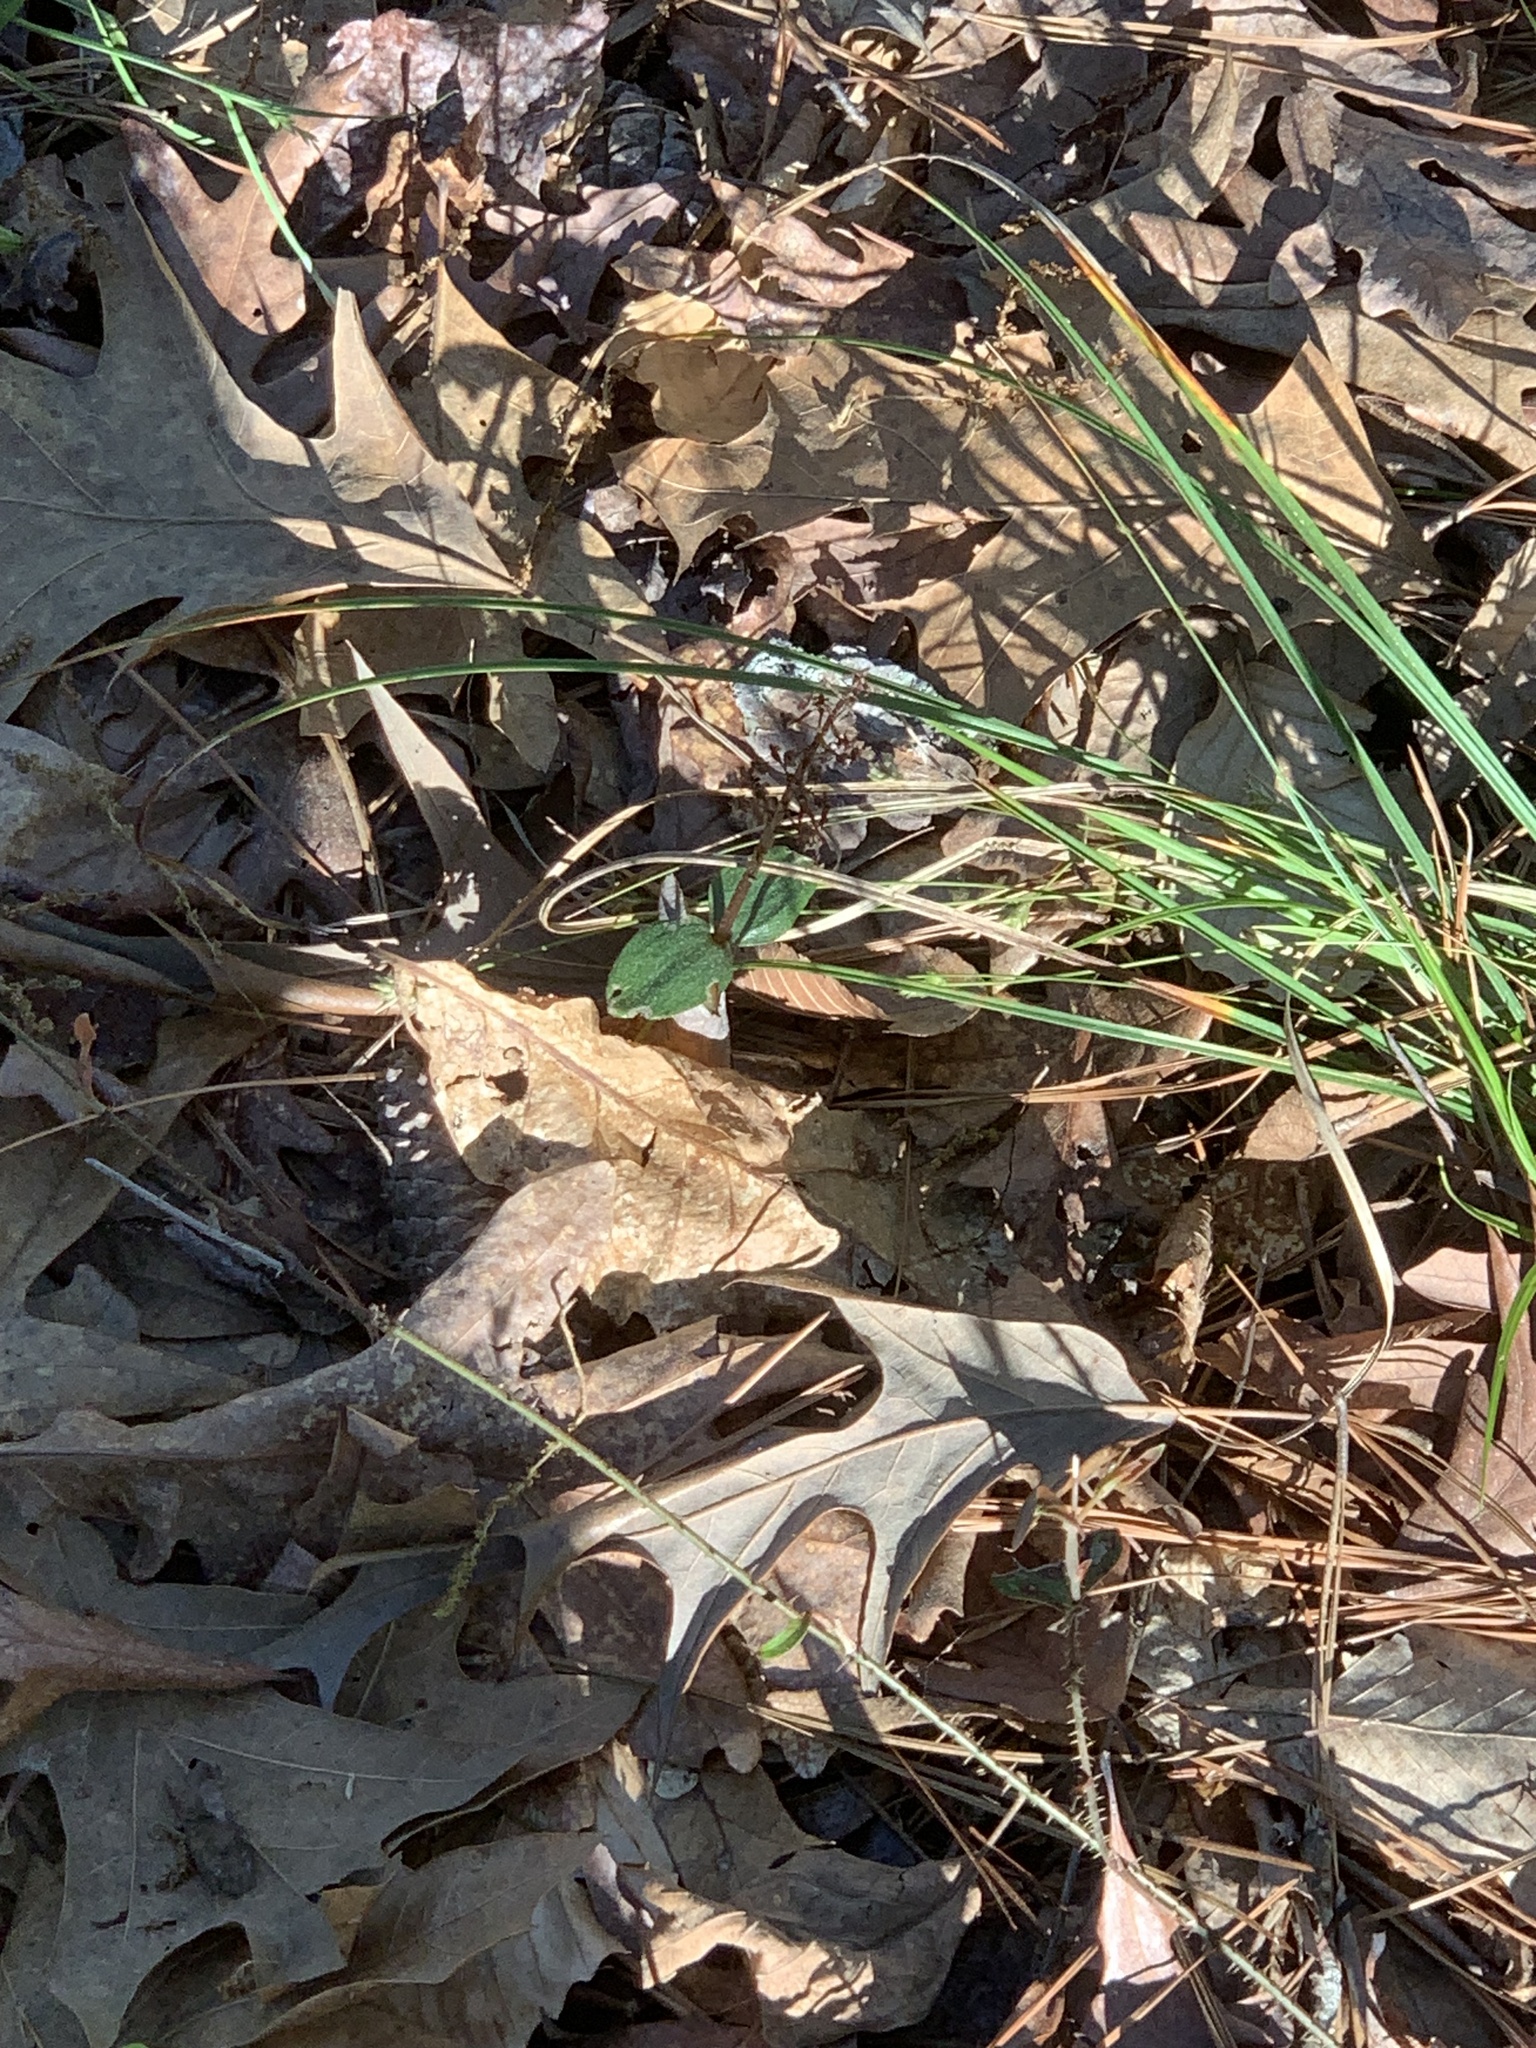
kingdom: Plantae
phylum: Tracheophyta
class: Liliopsida
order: Asparagales
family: Orchidaceae
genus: Neottia
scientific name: Neottia bifolia
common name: Southern twayblade
